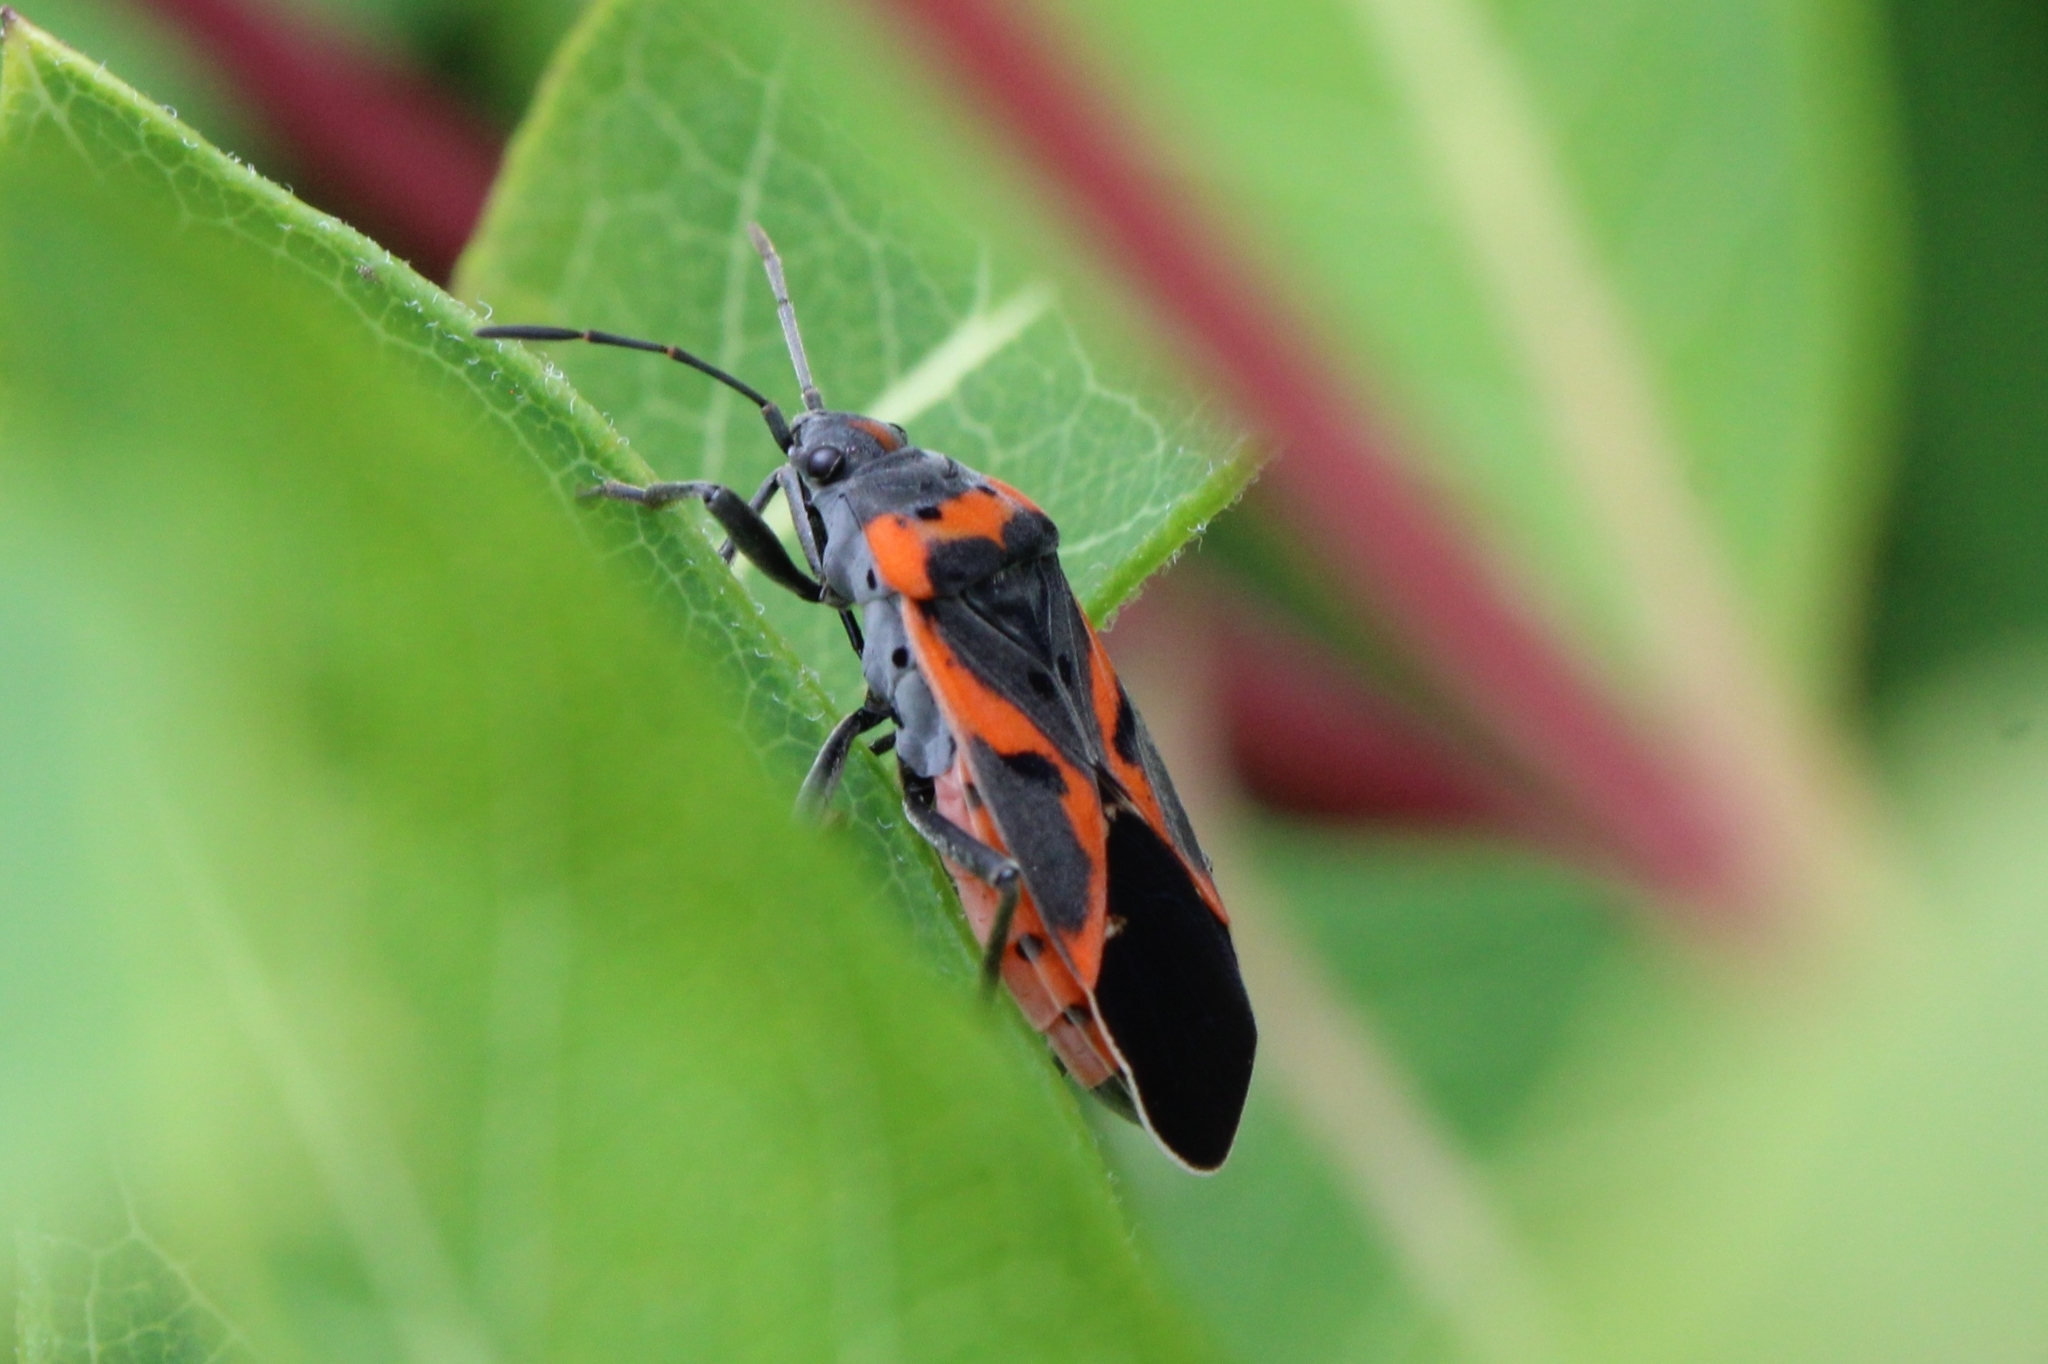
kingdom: Animalia
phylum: Arthropoda
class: Insecta
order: Hemiptera
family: Lygaeidae
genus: Lygaeus
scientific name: Lygaeus kalmii
